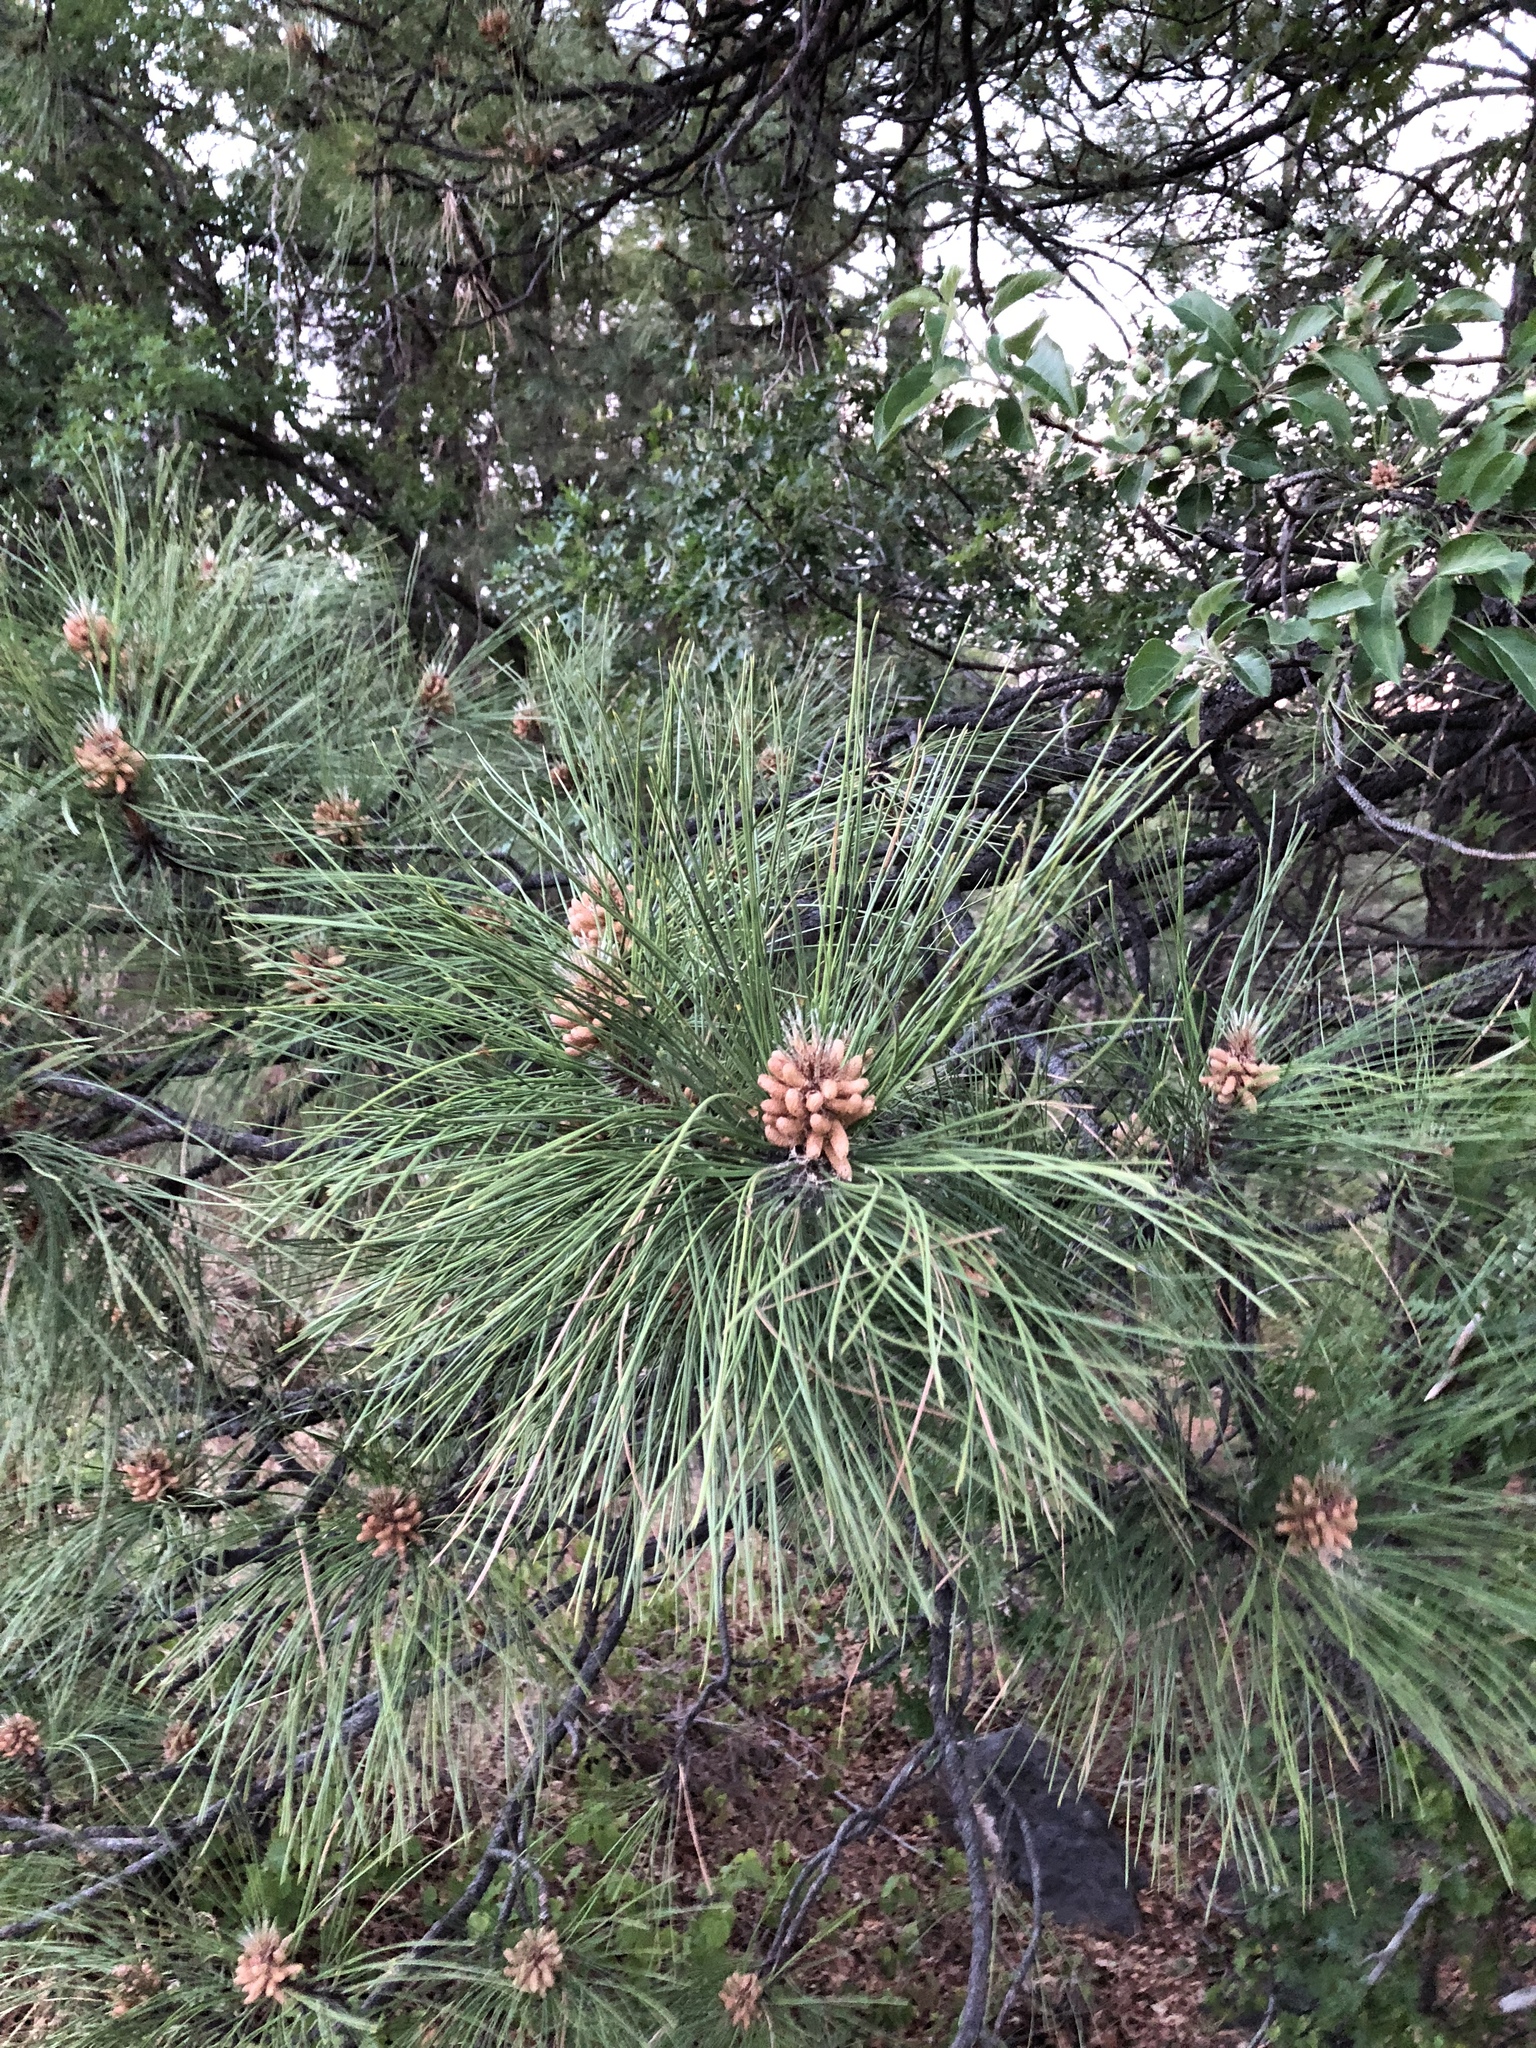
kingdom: Plantae
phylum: Tracheophyta
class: Pinopsida
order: Pinales
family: Pinaceae
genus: Pinus
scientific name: Pinus ponderosa
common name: Western yellow-pine
